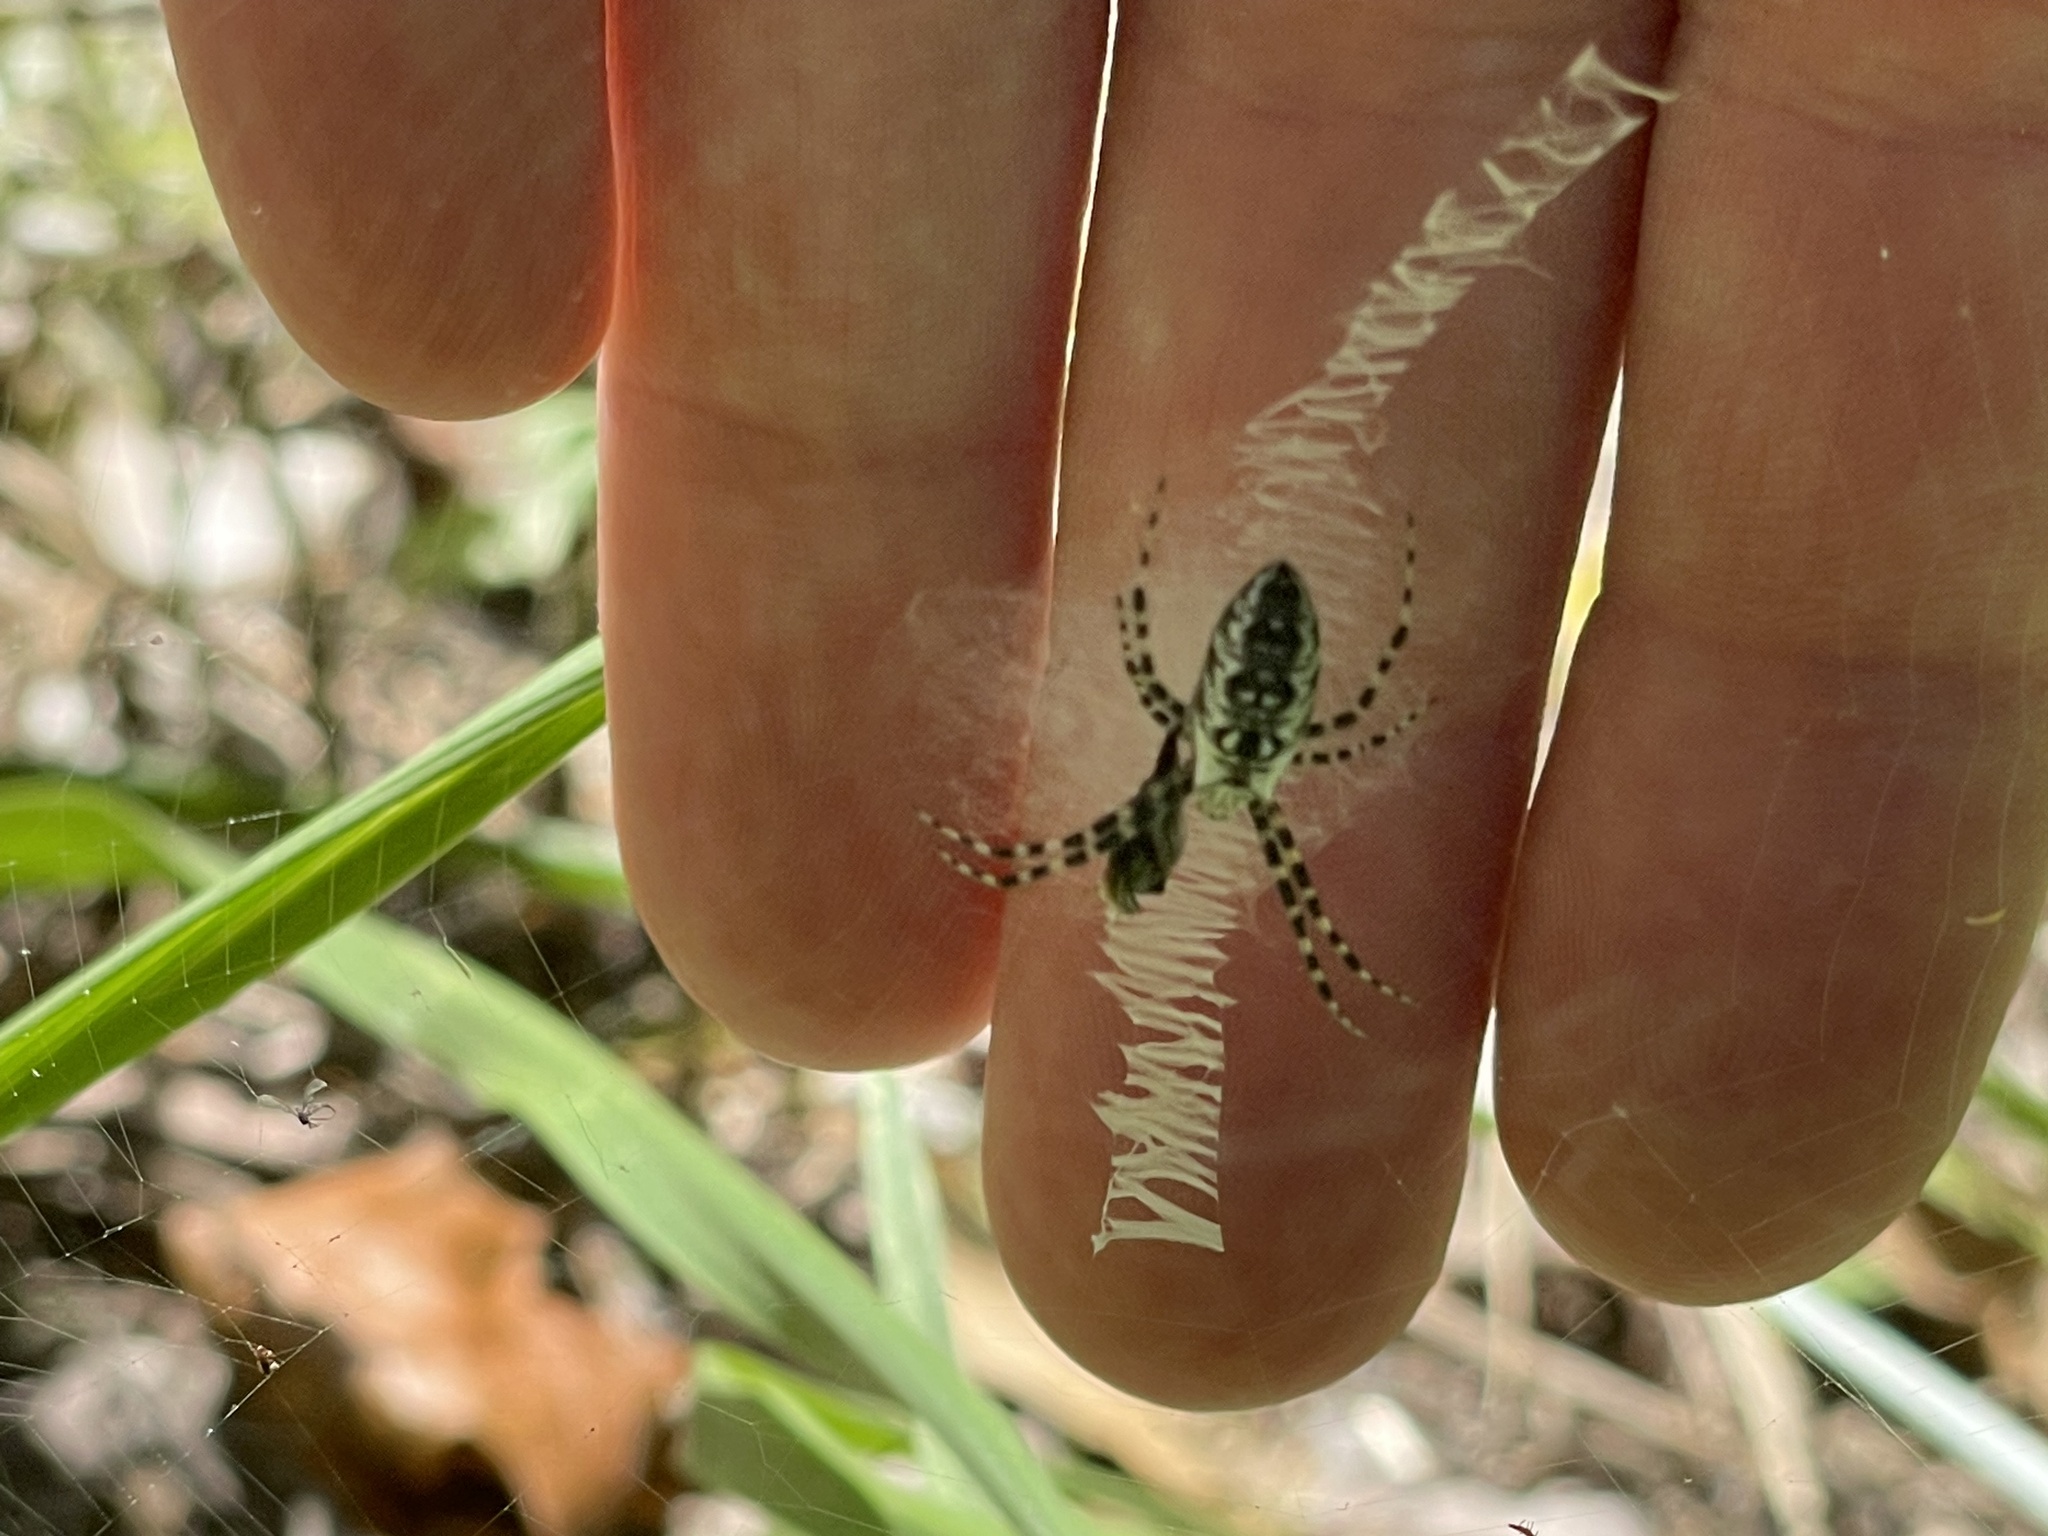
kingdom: Animalia
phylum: Arthropoda
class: Arachnida
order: Araneae
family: Araneidae
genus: Argiope
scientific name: Argiope aurantia
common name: Orb weavers
